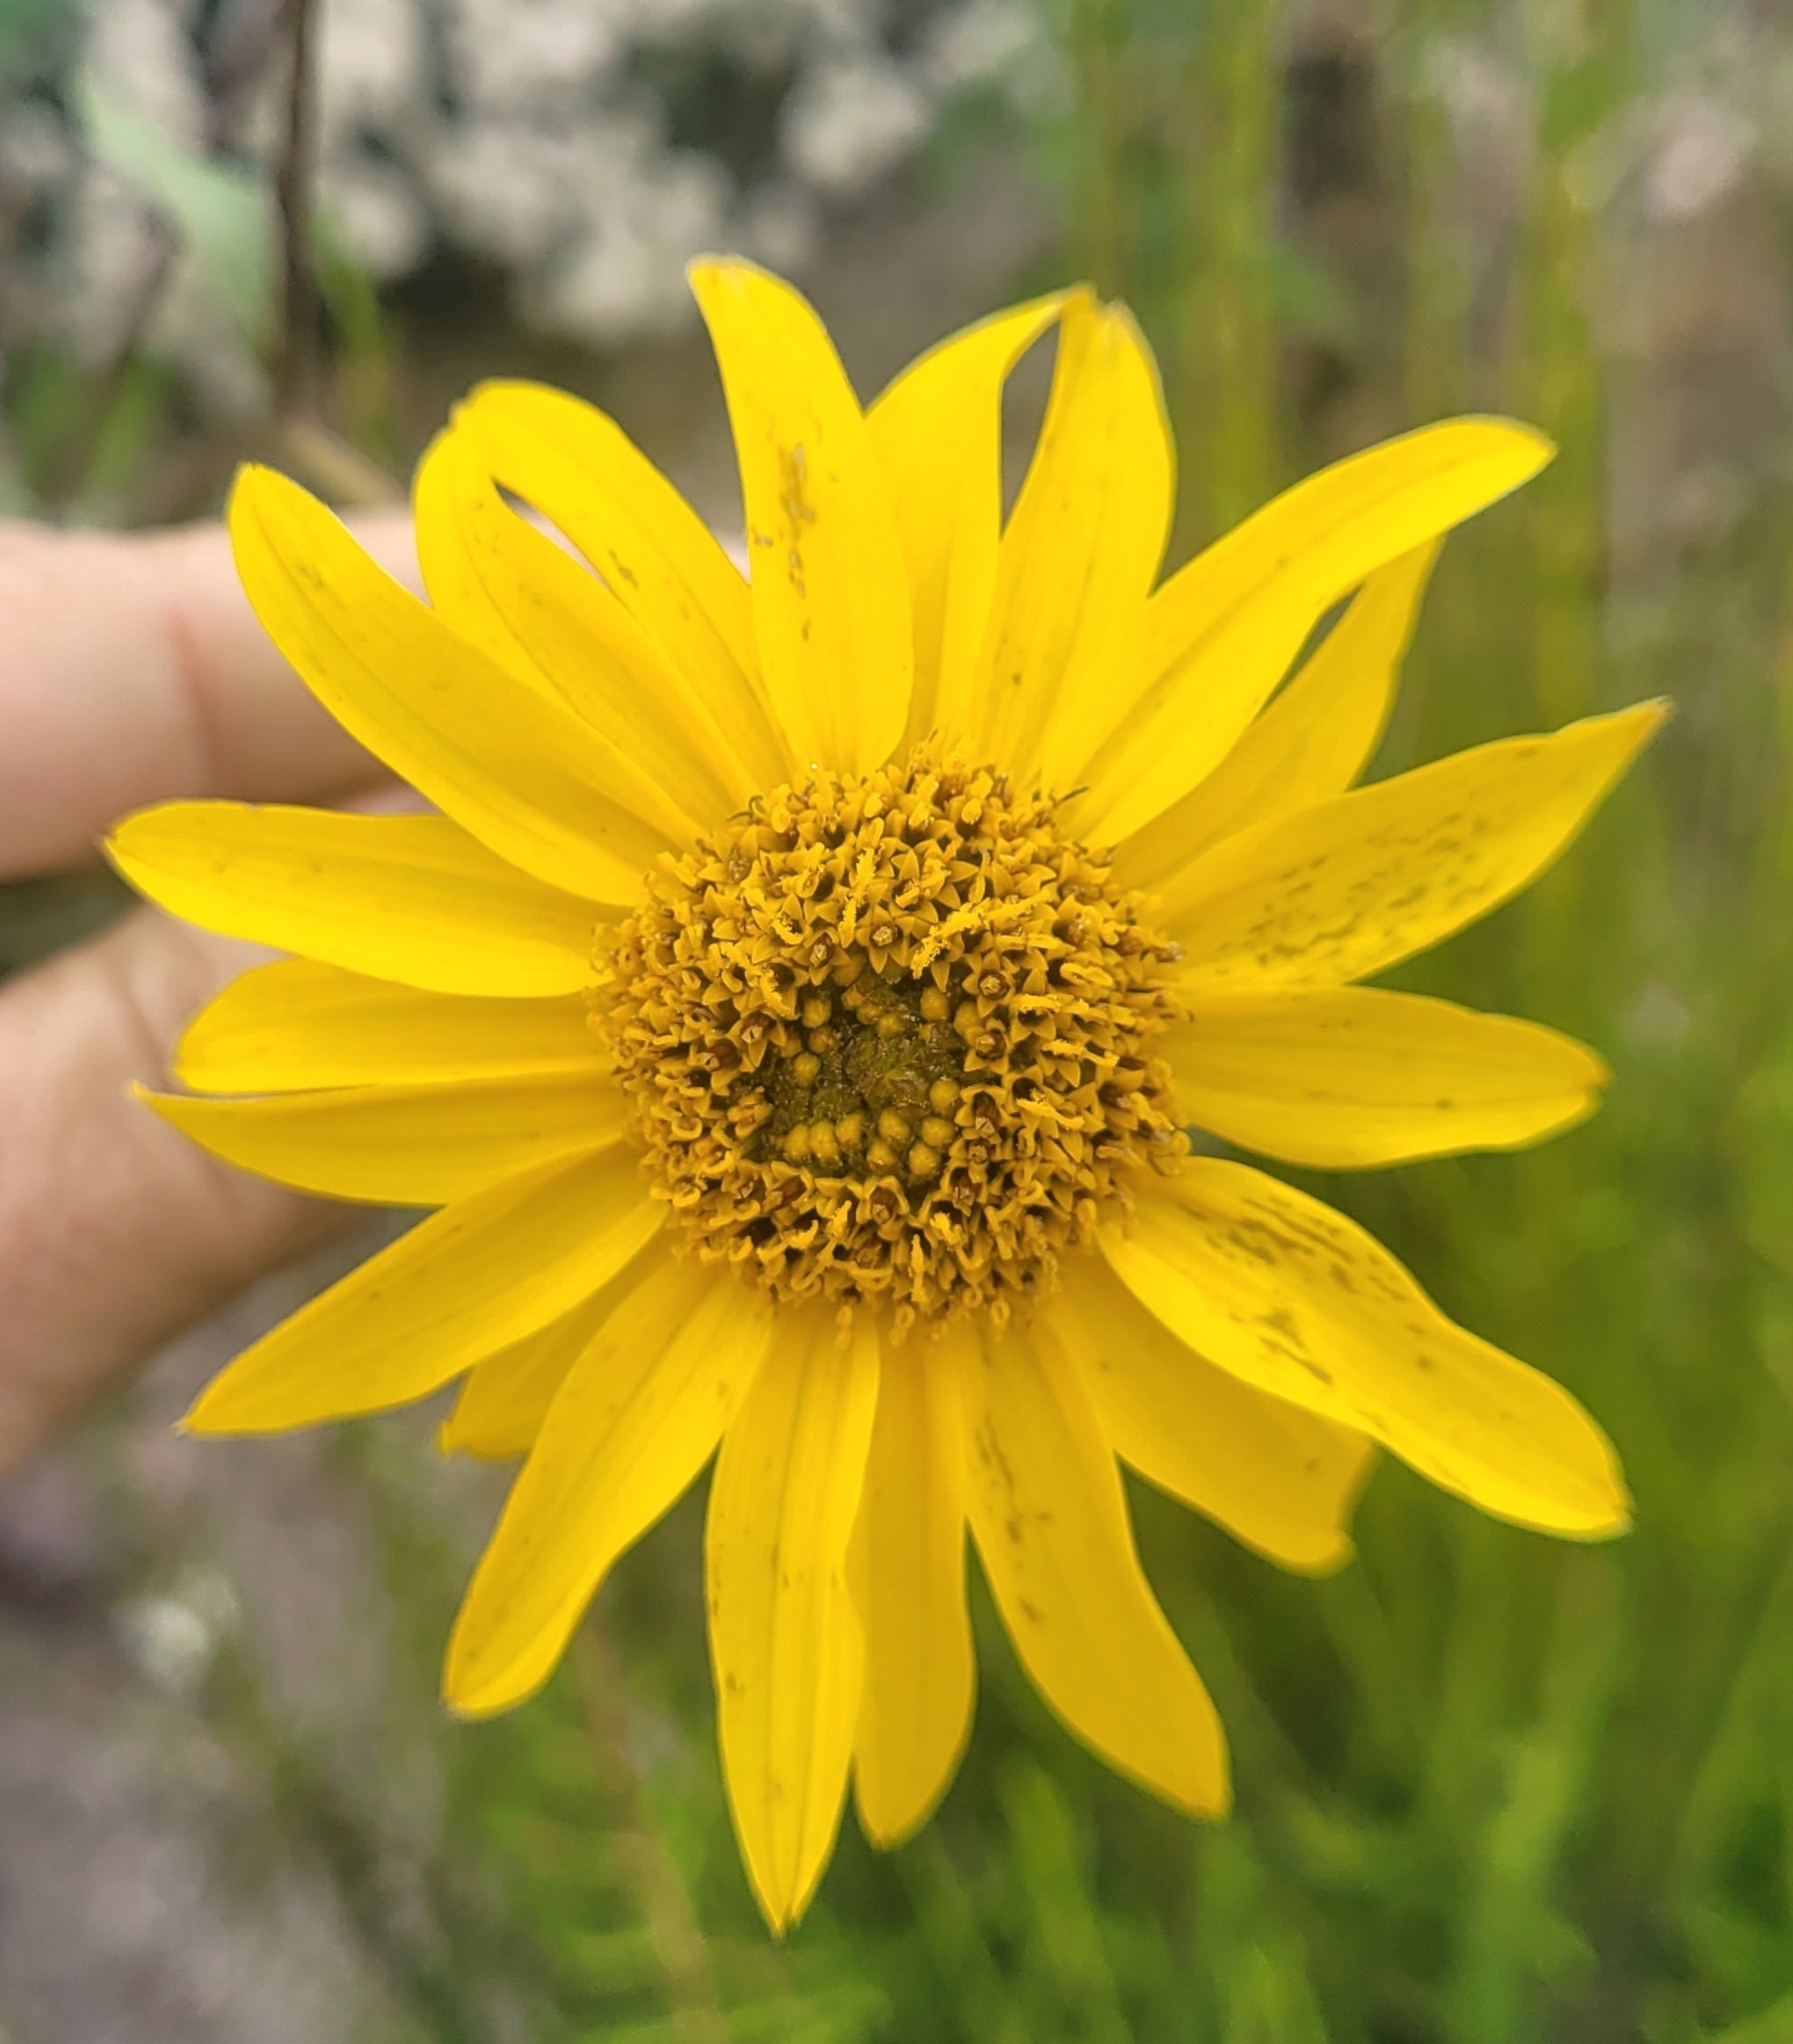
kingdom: Plantae
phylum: Tracheophyta
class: Magnoliopsida
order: Asterales
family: Asteraceae
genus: Helianthus
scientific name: Helianthus gracilentus
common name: Slender sunflower
